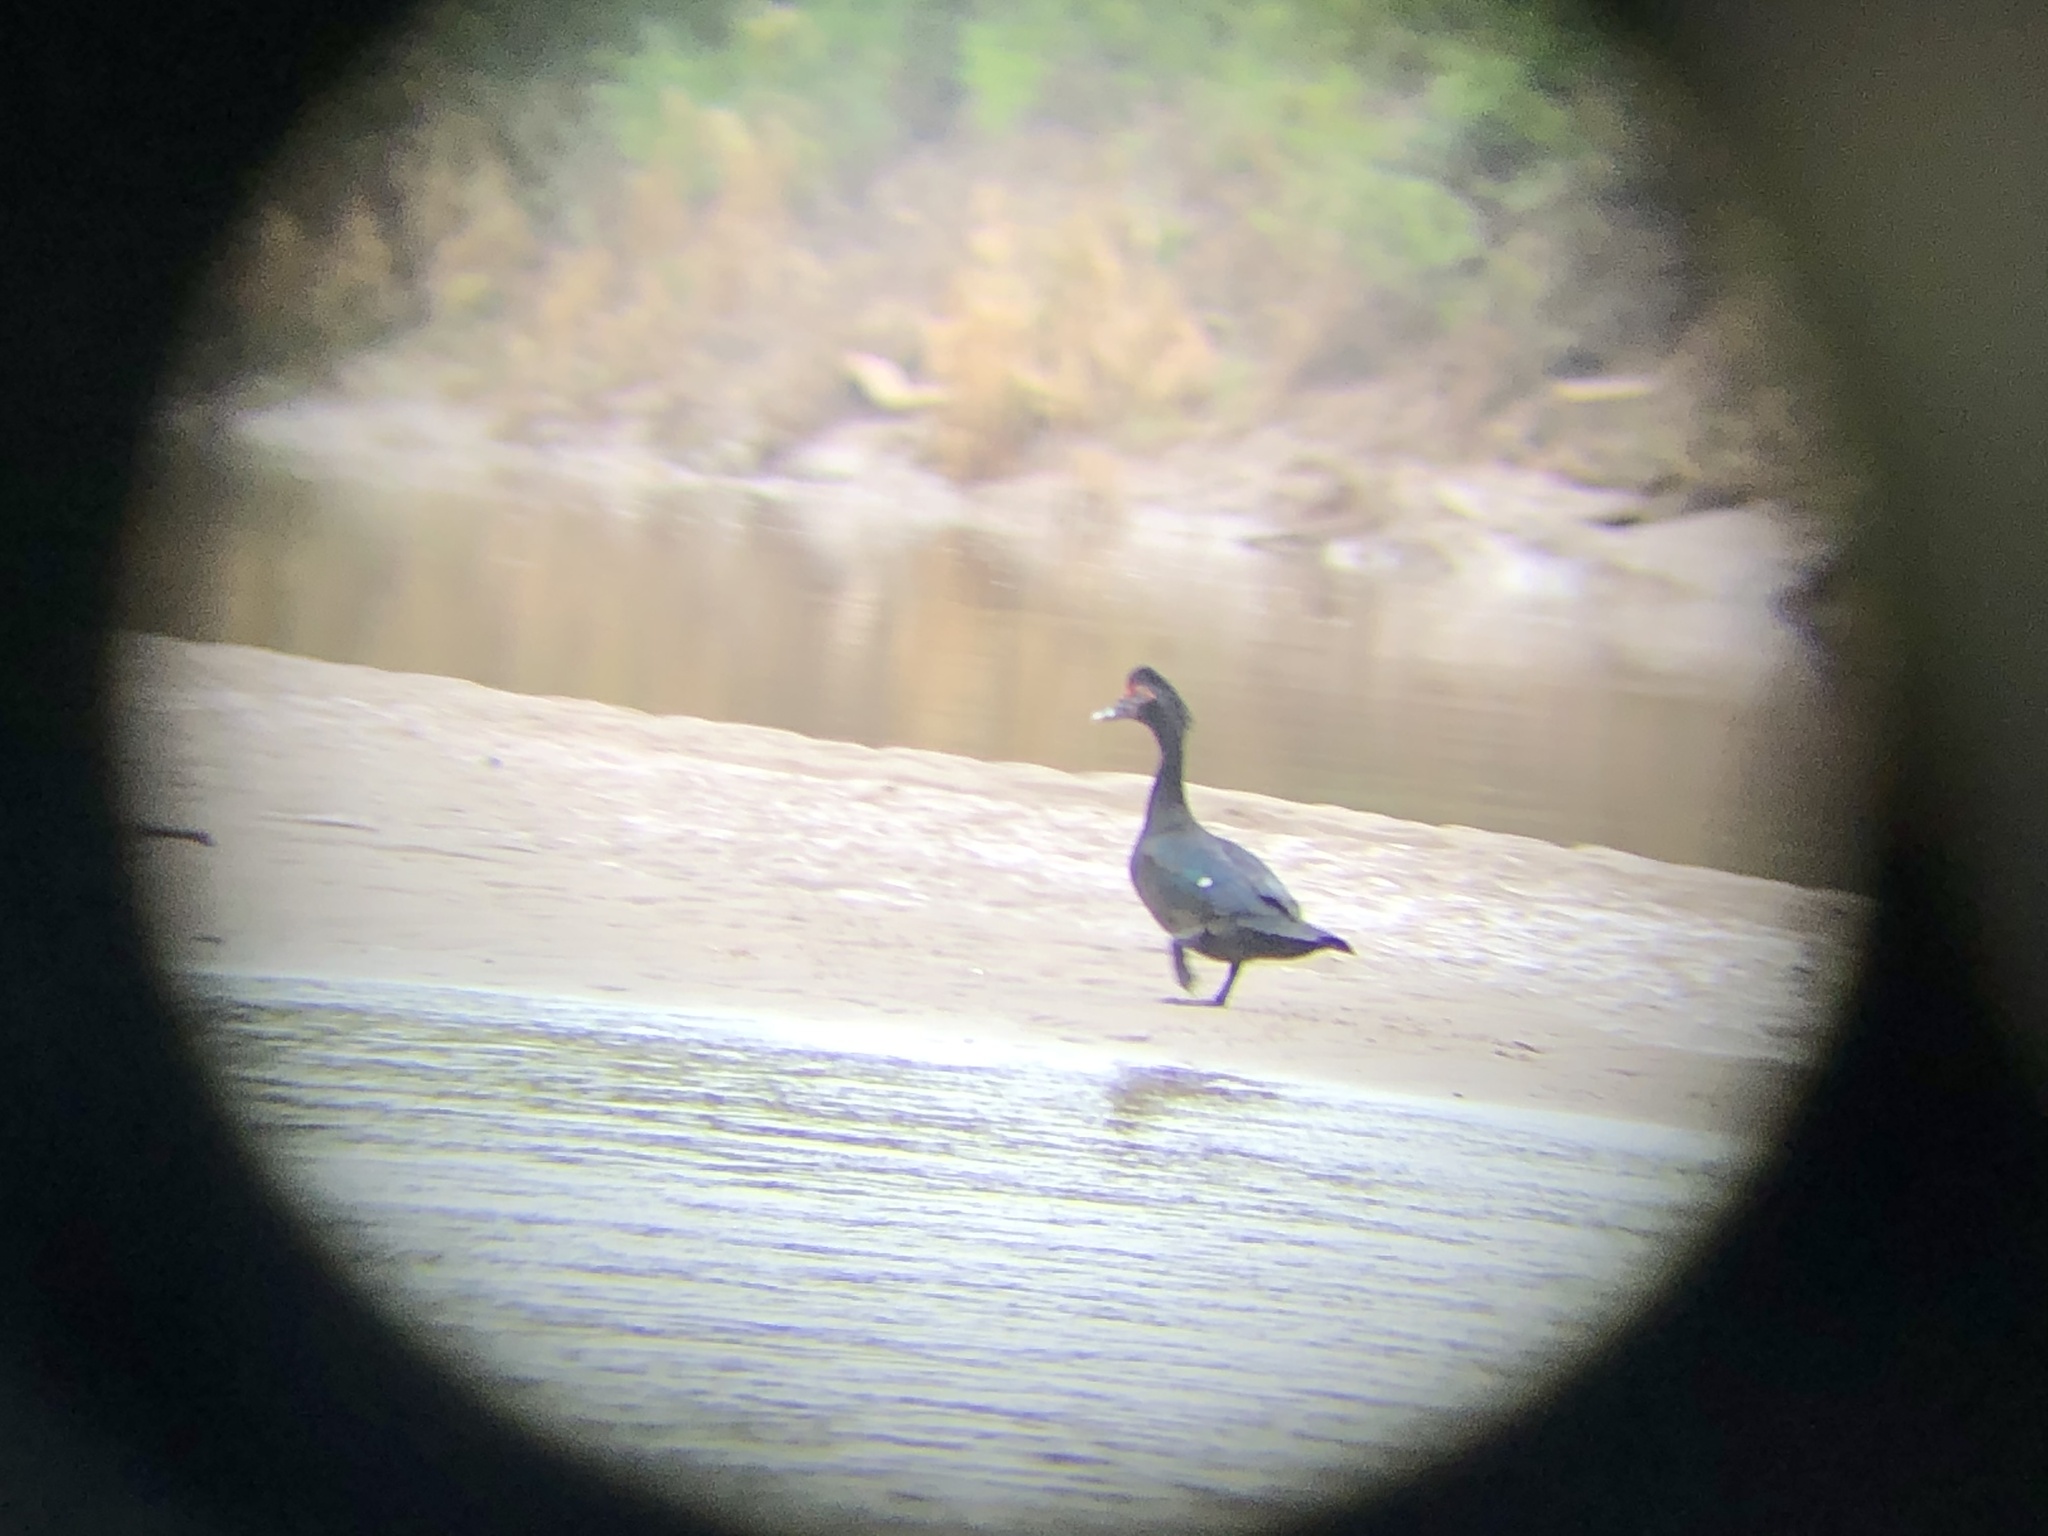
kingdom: Animalia
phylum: Chordata
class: Aves
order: Anseriformes
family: Anatidae
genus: Cairina
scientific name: Cairina moschata
